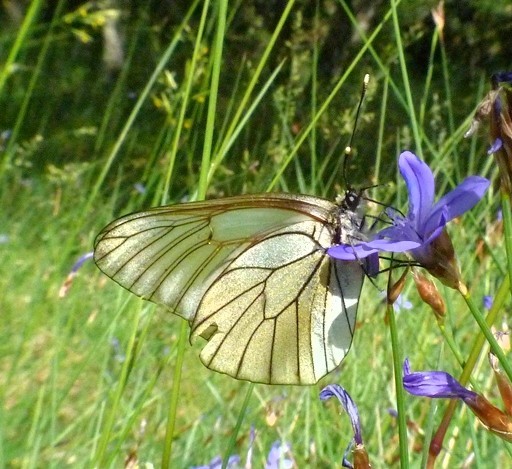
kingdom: Animalia
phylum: Arthropoda
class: Insecta
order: Lepidoptera
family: Pieridae
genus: Aporia
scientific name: Aporia crataegi
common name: Black-veined white
